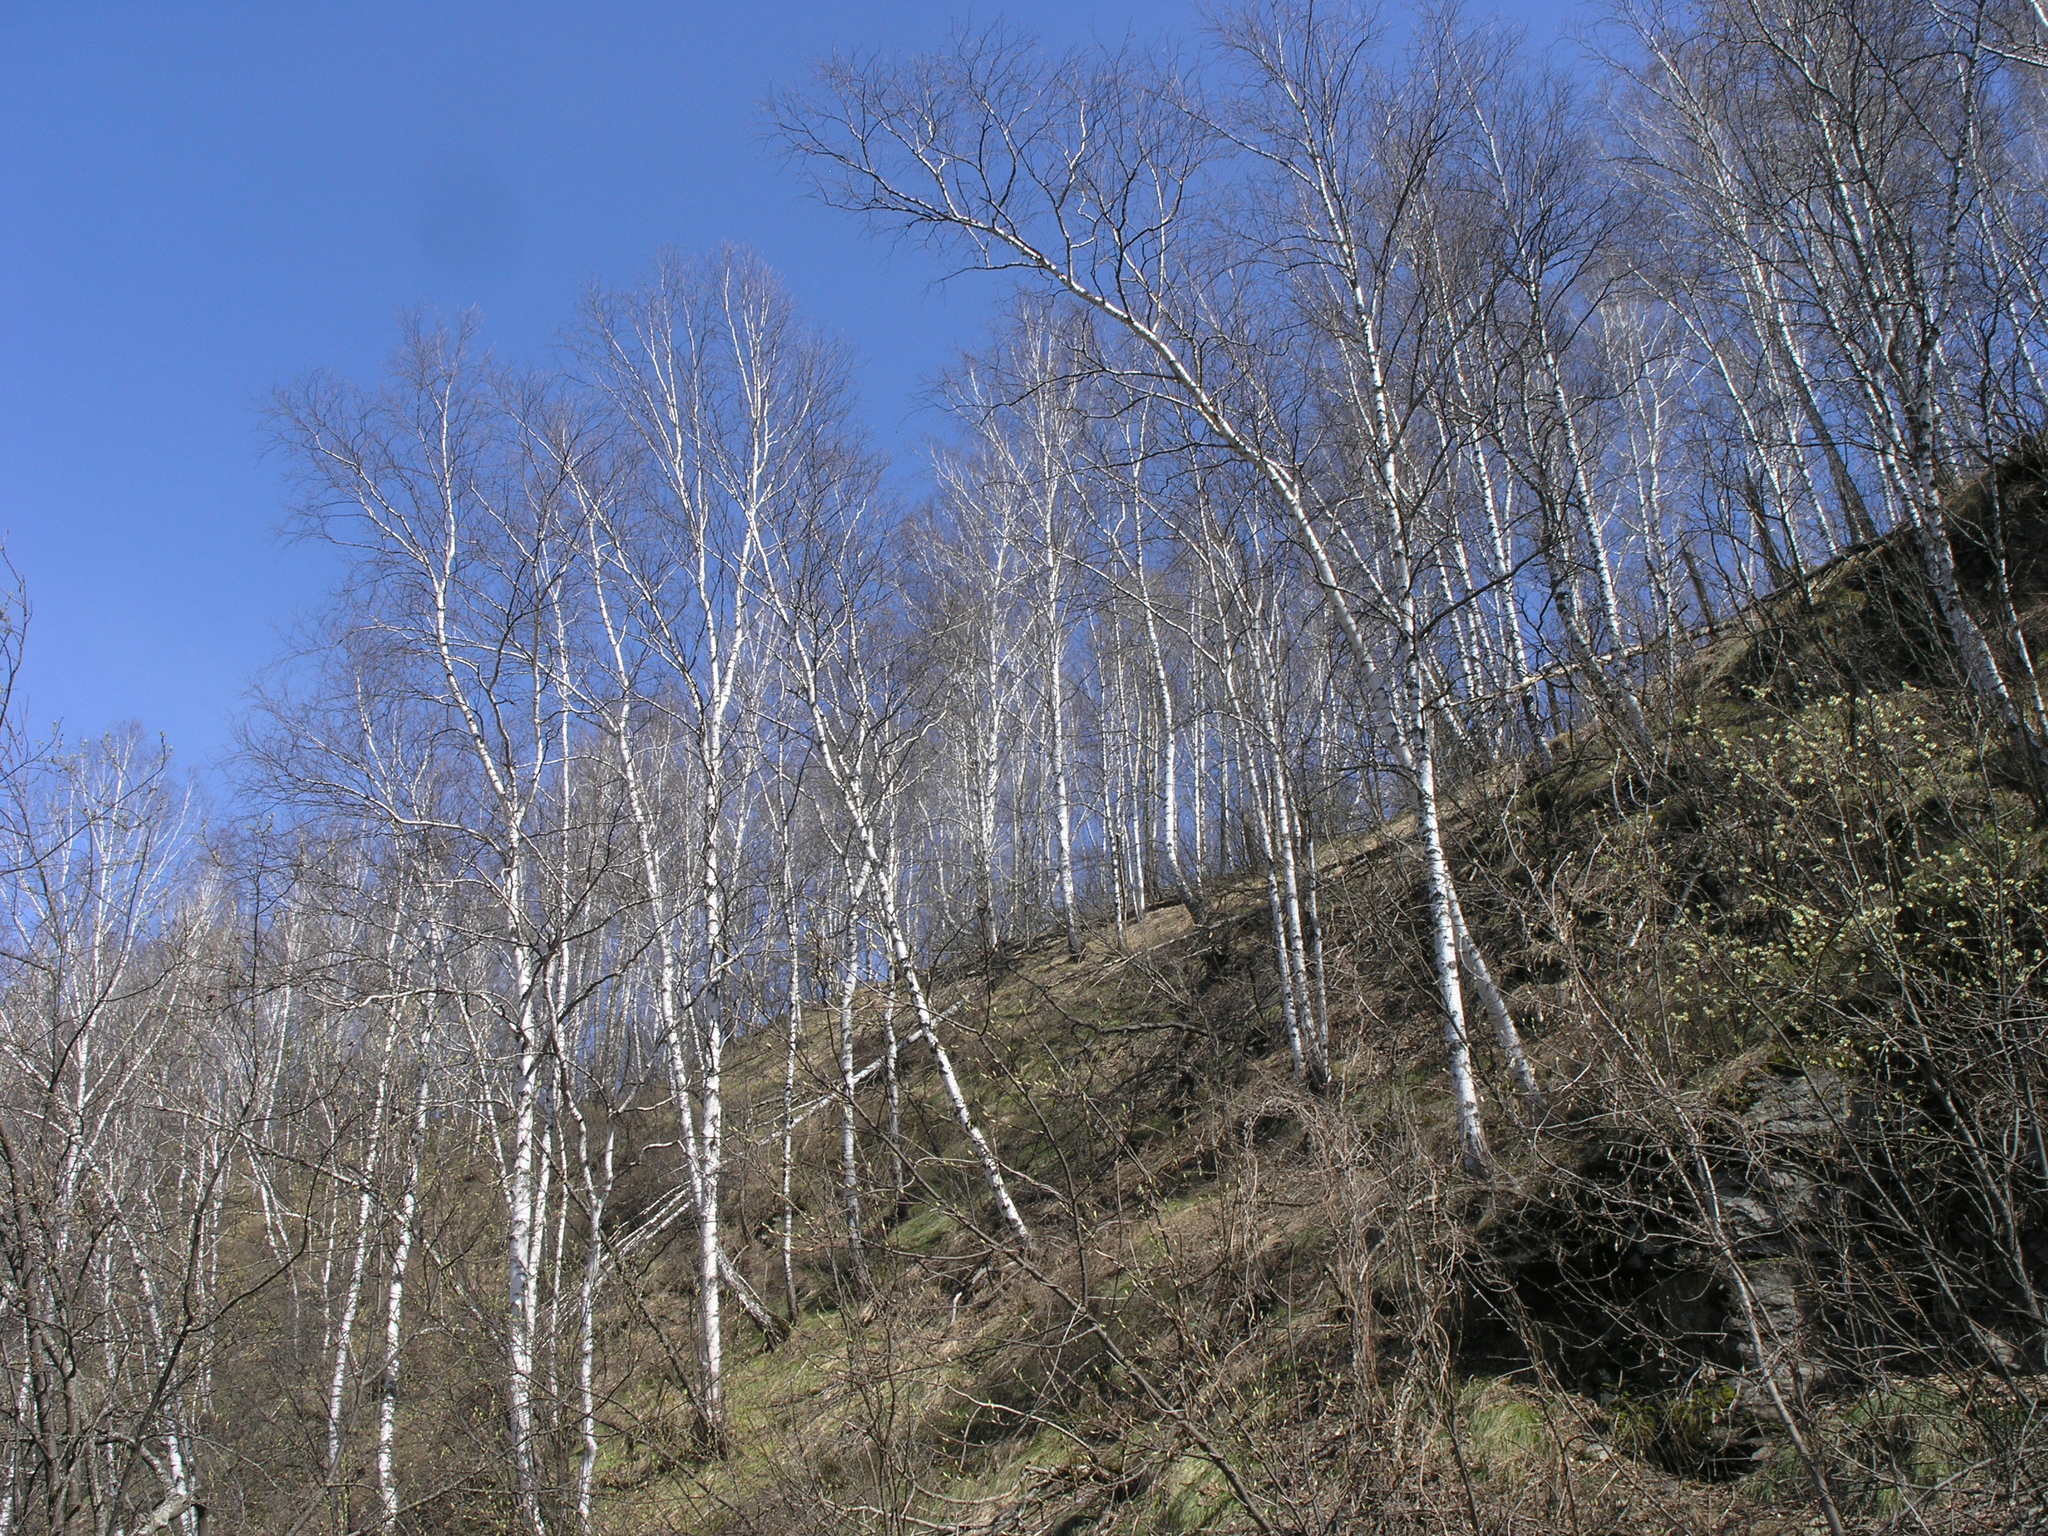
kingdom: Plantae
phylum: Tracheophyta
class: Magnoliopsida
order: Fagales
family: Betulaceae
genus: Betula
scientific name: Betula pendula
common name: Silver birch
